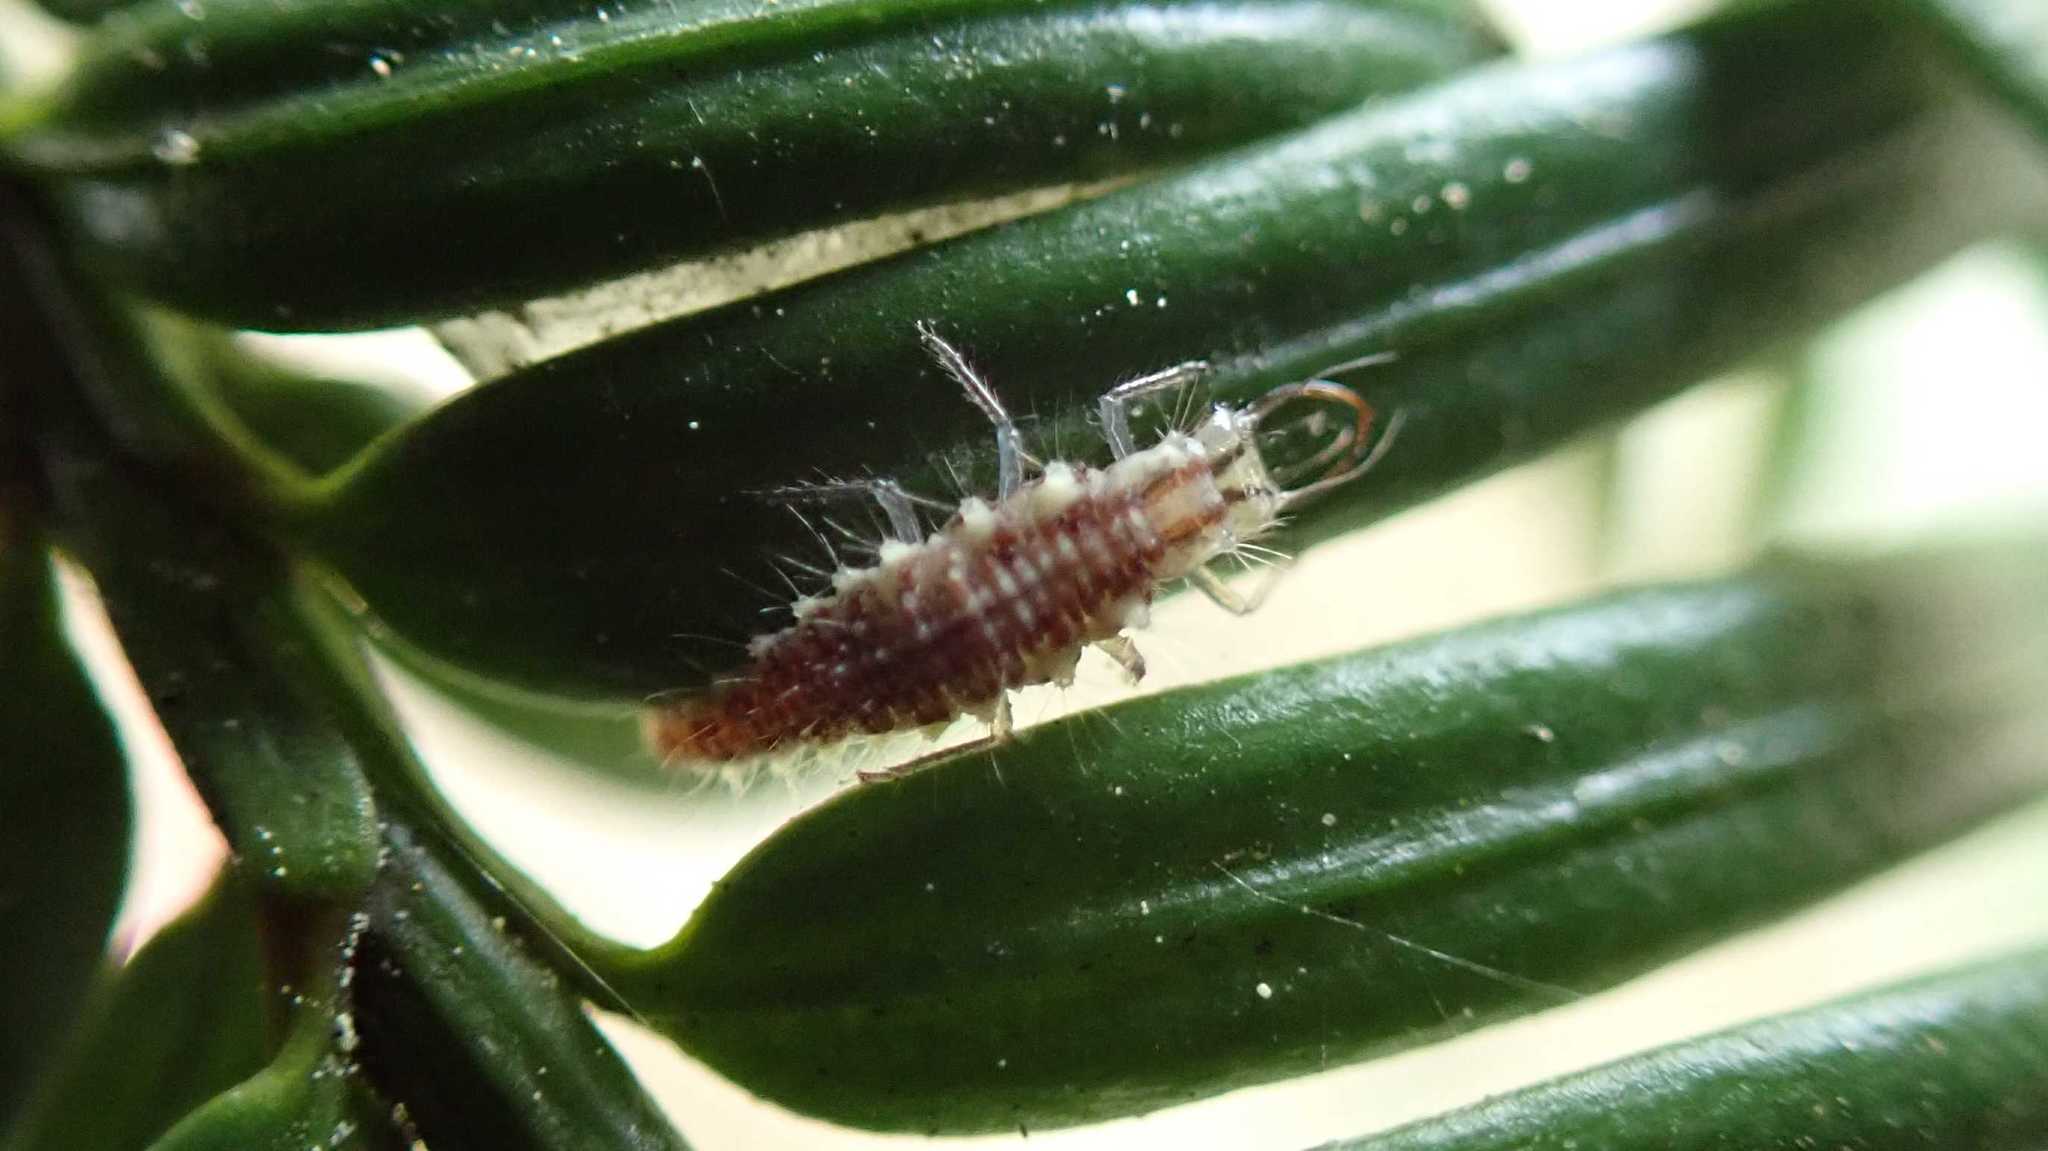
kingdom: Animalia
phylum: Arthropoda
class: Insecta
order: Neuroptera
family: Chrysopidae
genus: Chrysoperla
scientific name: Chrysoperla
